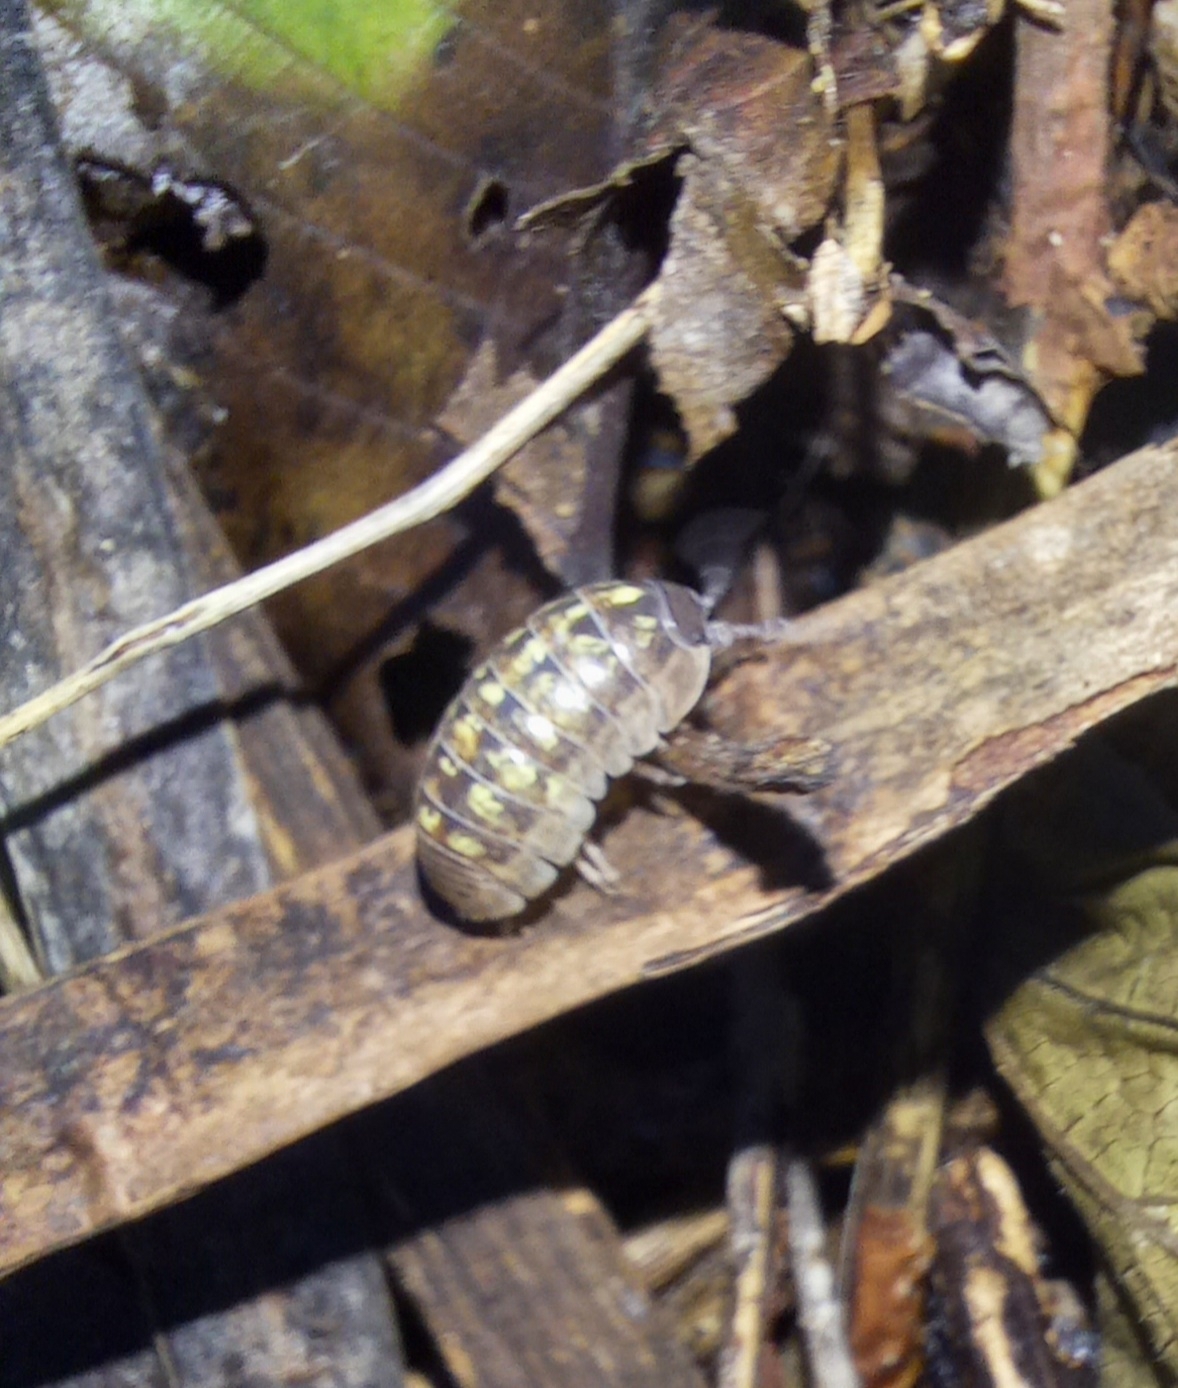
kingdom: Animalia
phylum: Arthropoda
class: Malacostraca
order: Isopoda
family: Armadillidiidae
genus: Armadillidium
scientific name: Armadillidium vulgare
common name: Common pill woodlouse
